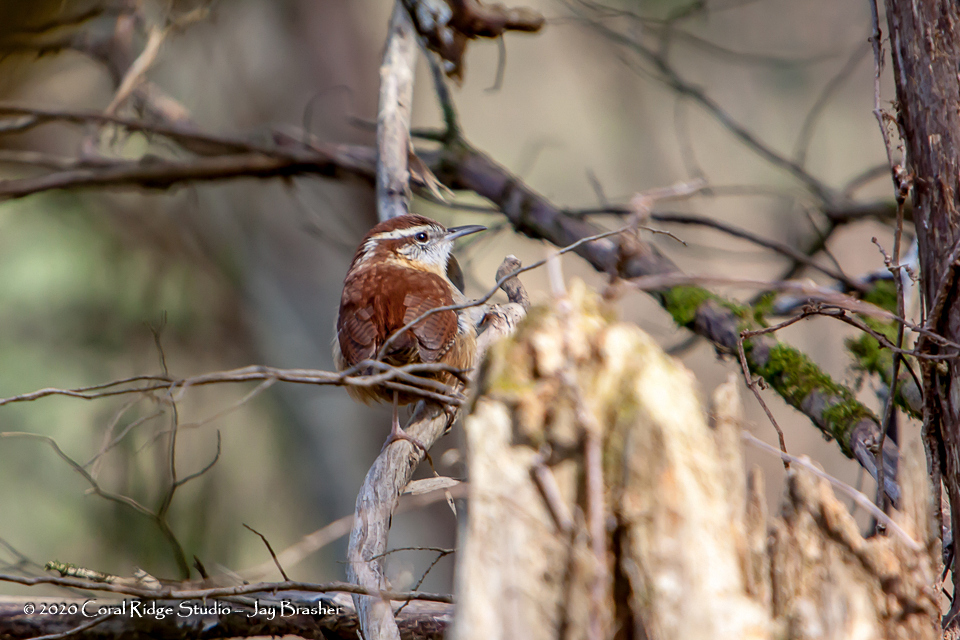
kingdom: Animalia
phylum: Chordata
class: Aves
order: Passeriformes
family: Troglodytidae
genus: Thryothorus
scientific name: Thryothorus ludovicianus
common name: Carolina wren
